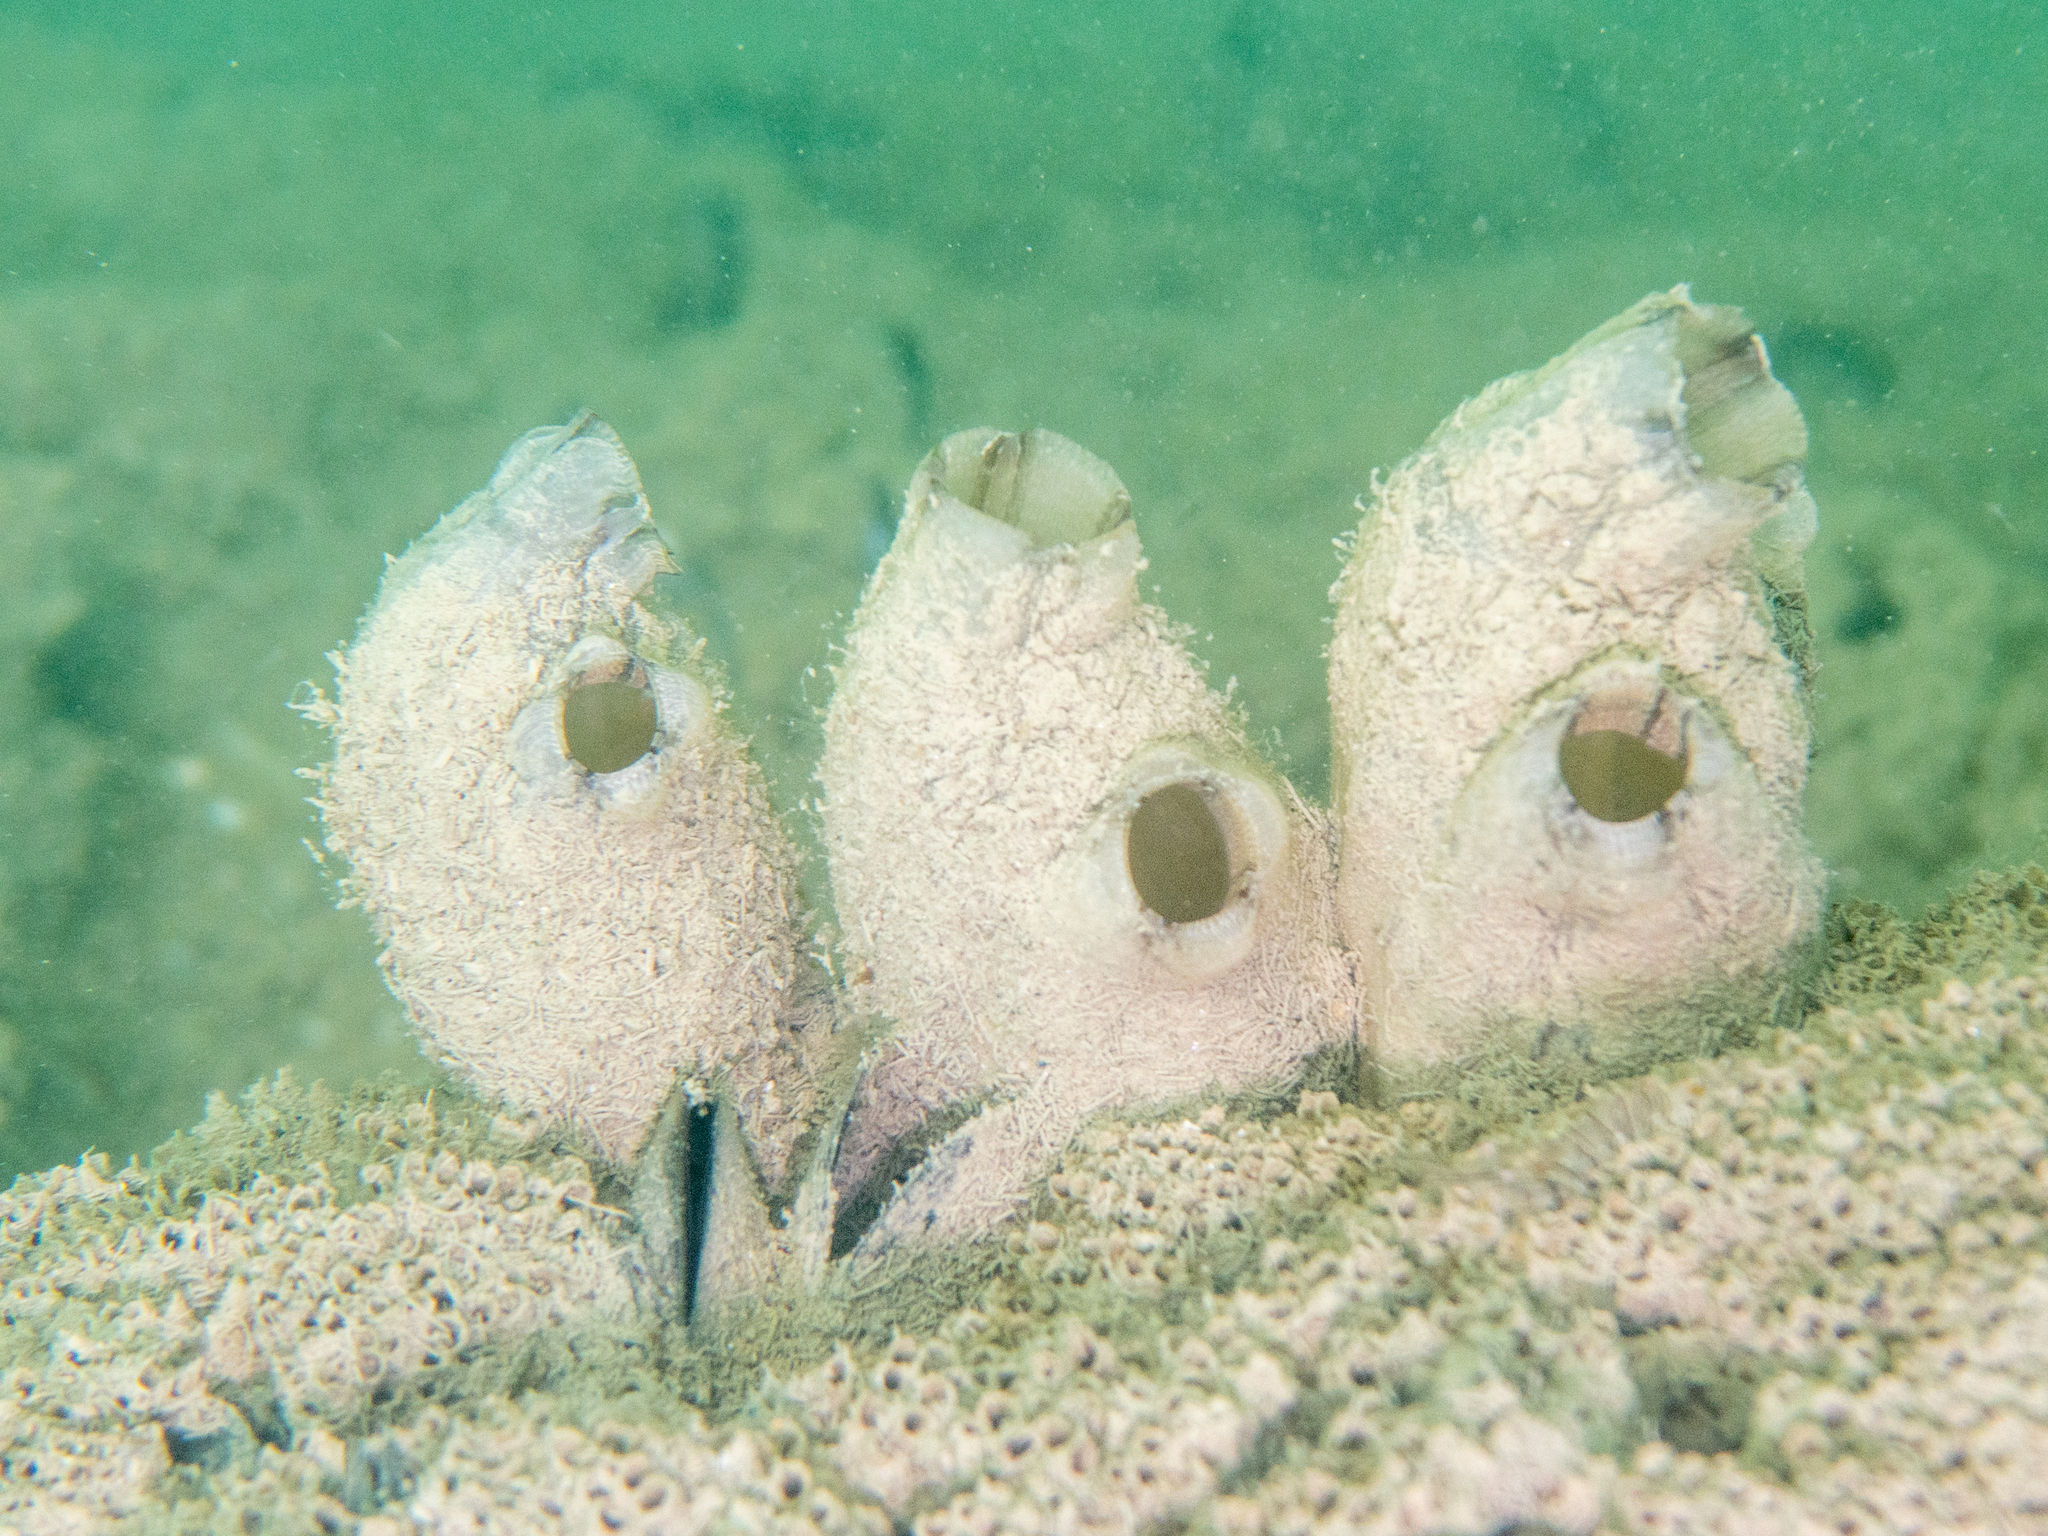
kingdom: Animalia
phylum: Chordata
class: Ascidiacea
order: Stolidobranchia
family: Styelidae
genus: Styela
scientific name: Styela plicata
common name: Pleated tunicate
